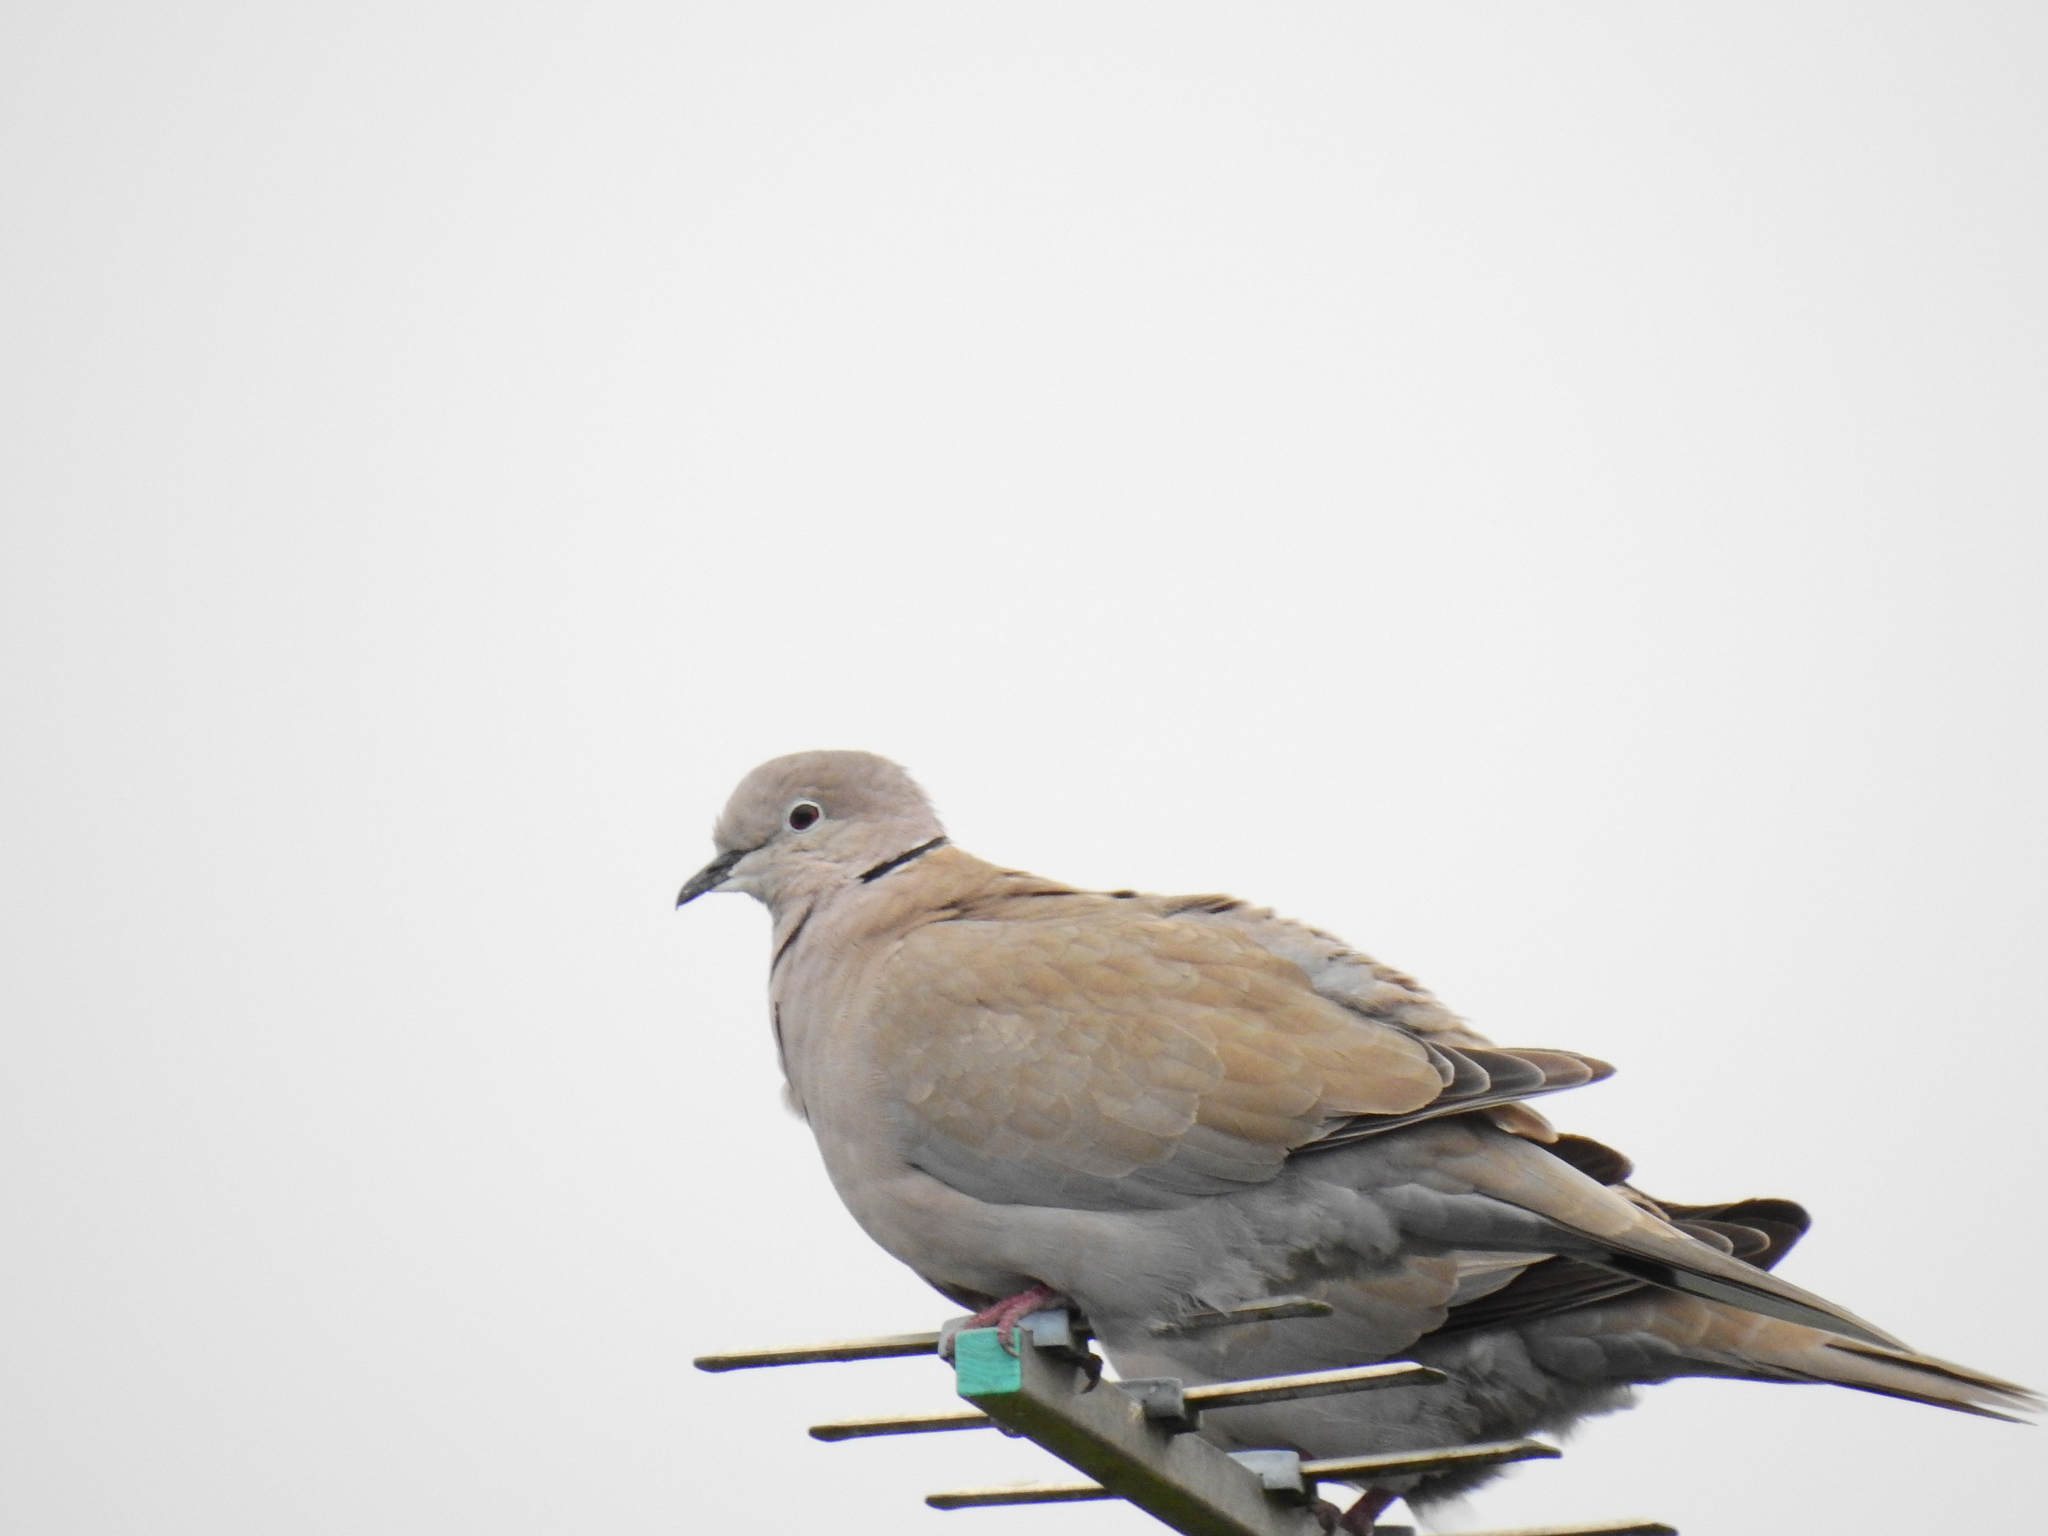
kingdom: Animalia
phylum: Chordata
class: Aves
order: Columbiformes
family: Columbidae
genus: Streptopelia
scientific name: Streptopelia decaocto
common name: Eurasian collared dove
